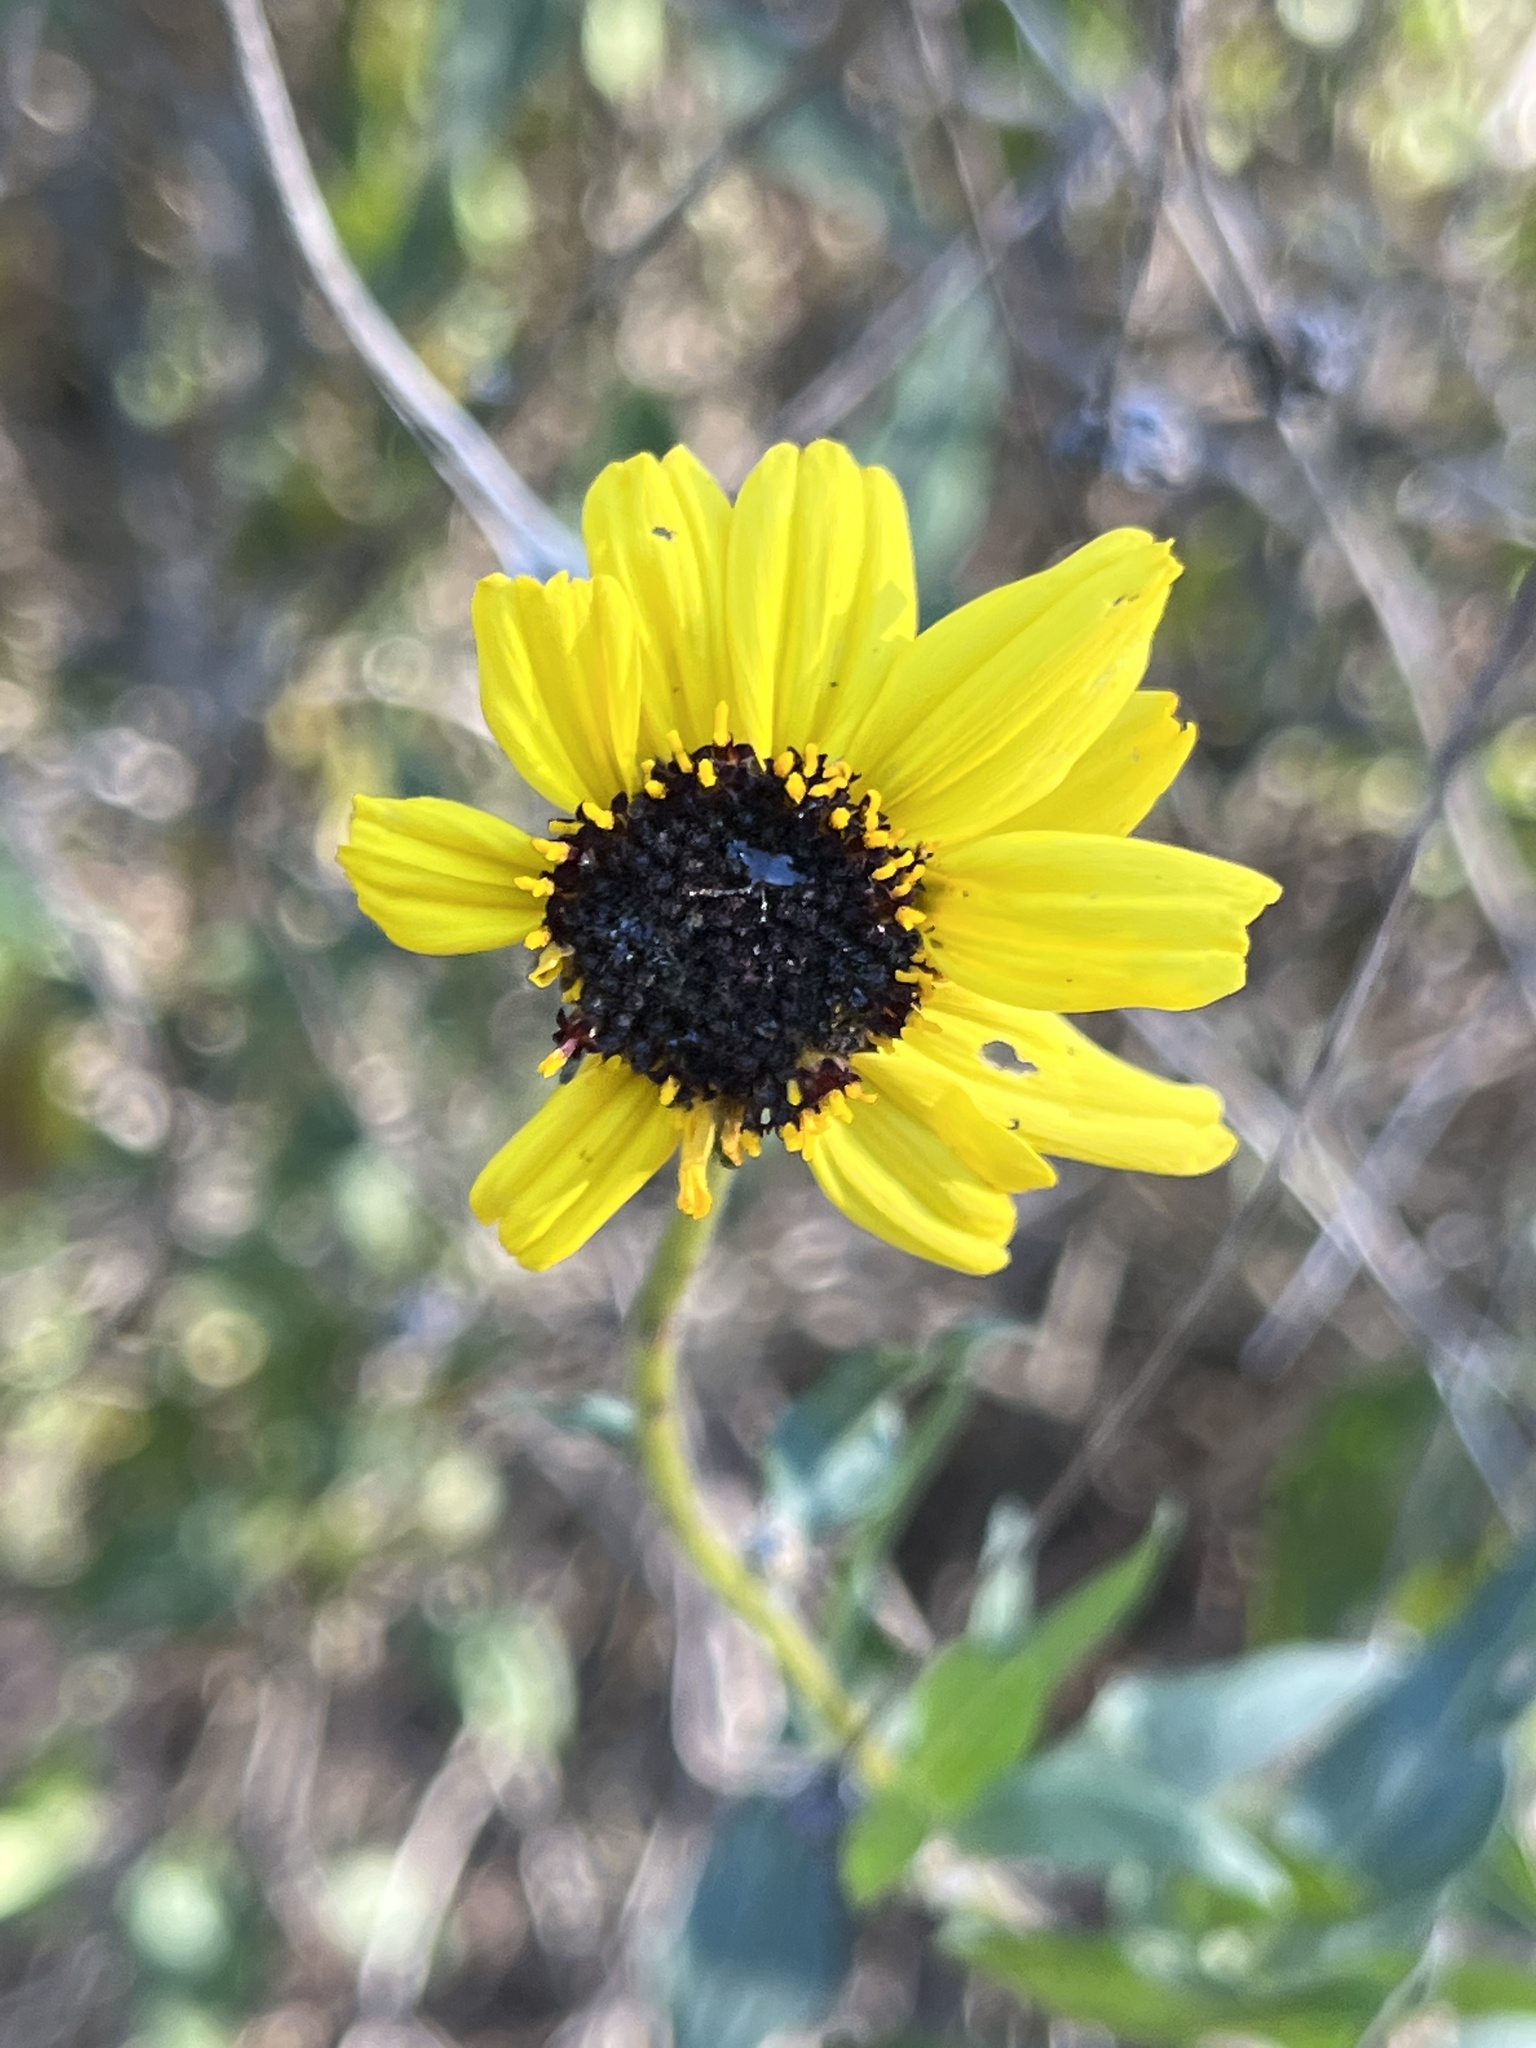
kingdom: Plantae
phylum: Tracheophyta
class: Magnoliopsida
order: Asterales
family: Asteraceae
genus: Encelia
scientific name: Encelia californica
